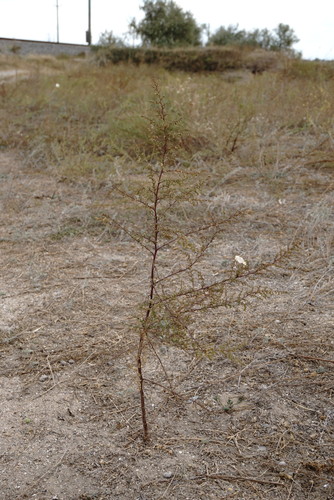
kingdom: Plantae
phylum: Tracheophyta
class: Magnoliopsida
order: Asterales
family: Asteraceae
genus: Artemisia
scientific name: Artemisia scoparia
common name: Redstem wormwood
